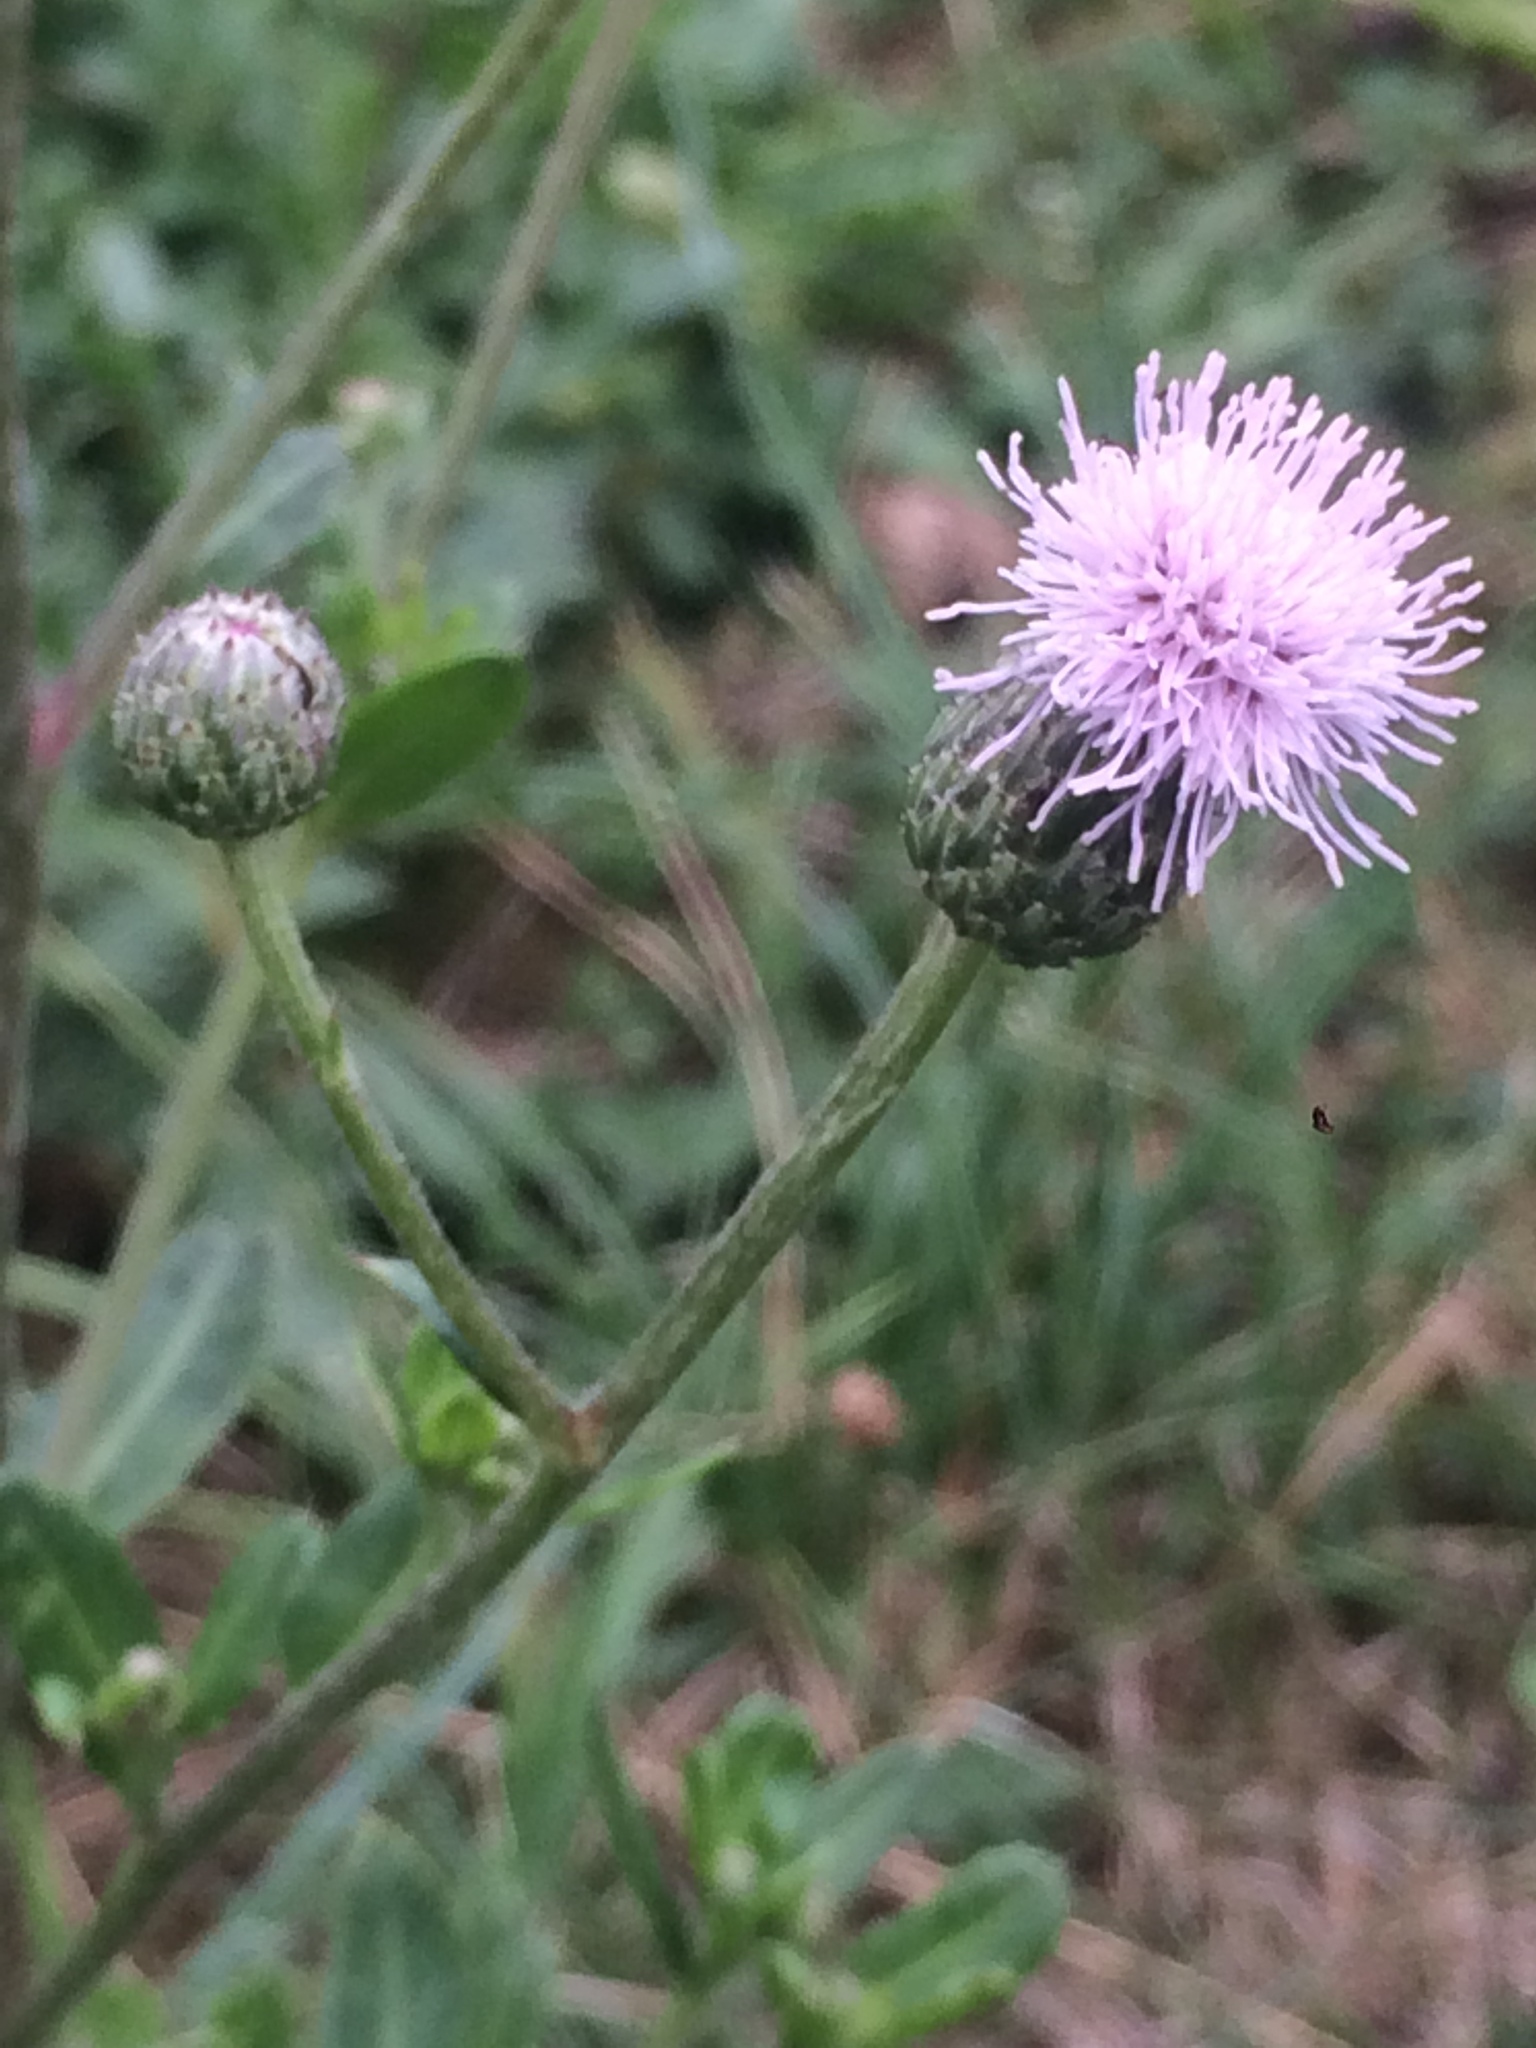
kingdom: Plantae
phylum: Tracheophyta
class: Magnoliopsida
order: Asterales
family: Asteraceae
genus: Cirsium
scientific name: Cirsium arvense
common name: Creeping thistle
